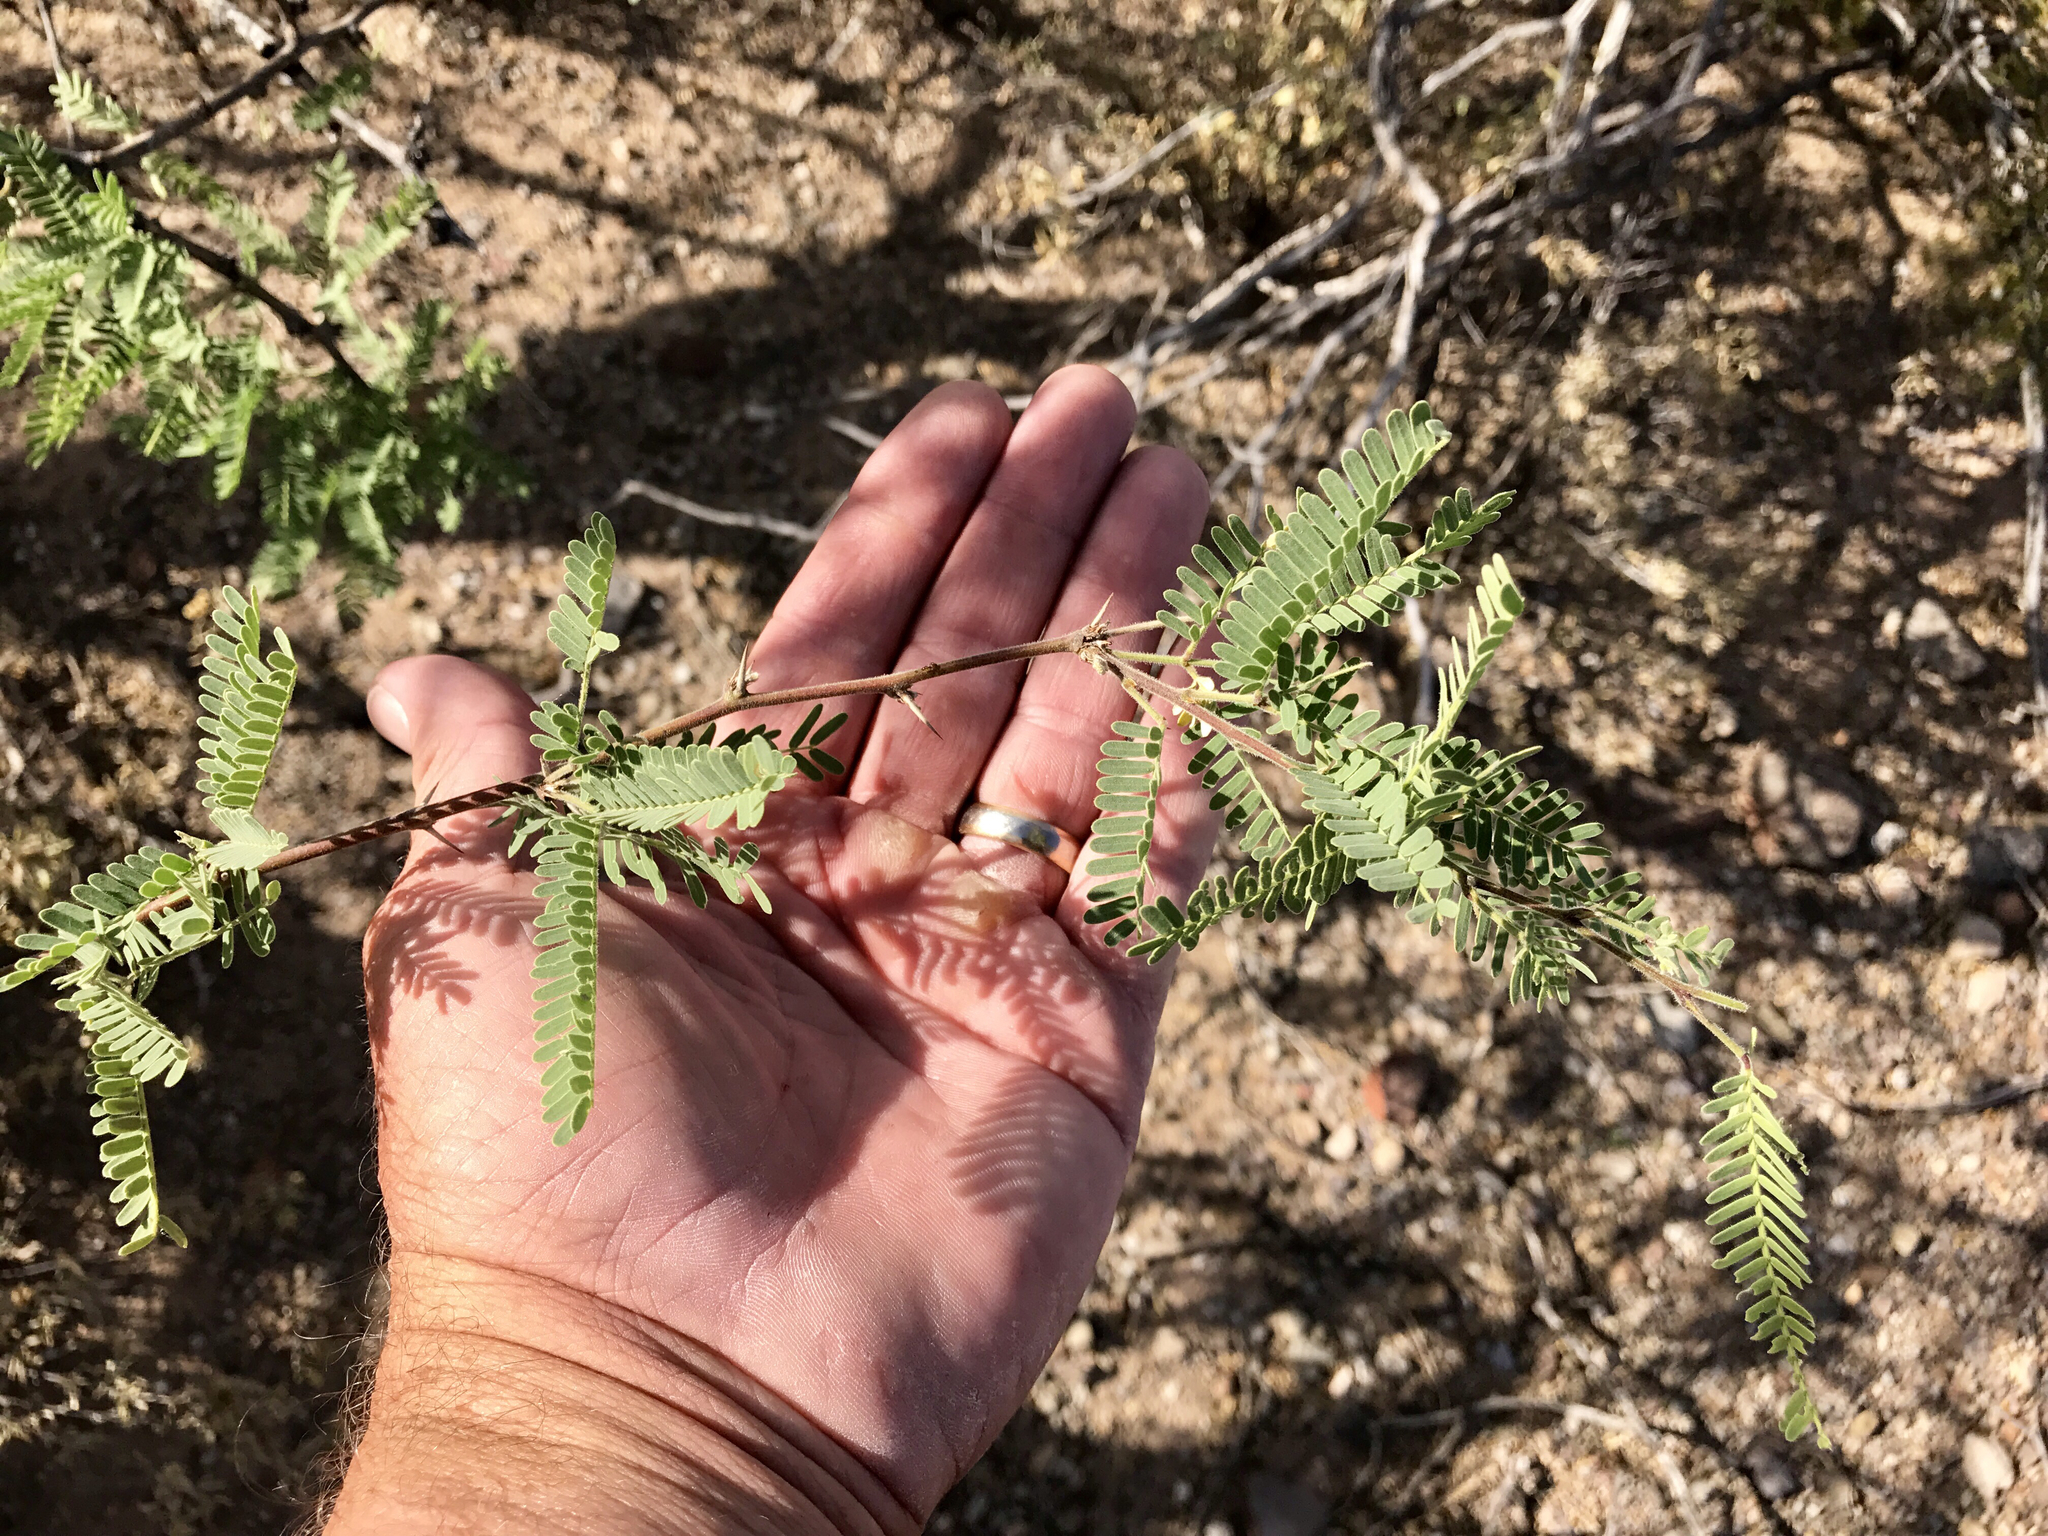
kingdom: Plantae
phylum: Tracheophyta
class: Magnoliopsida
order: Fabales
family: Fabaceae
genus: Prosopis
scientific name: Prosopis glandulosa
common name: Honey mesquite
